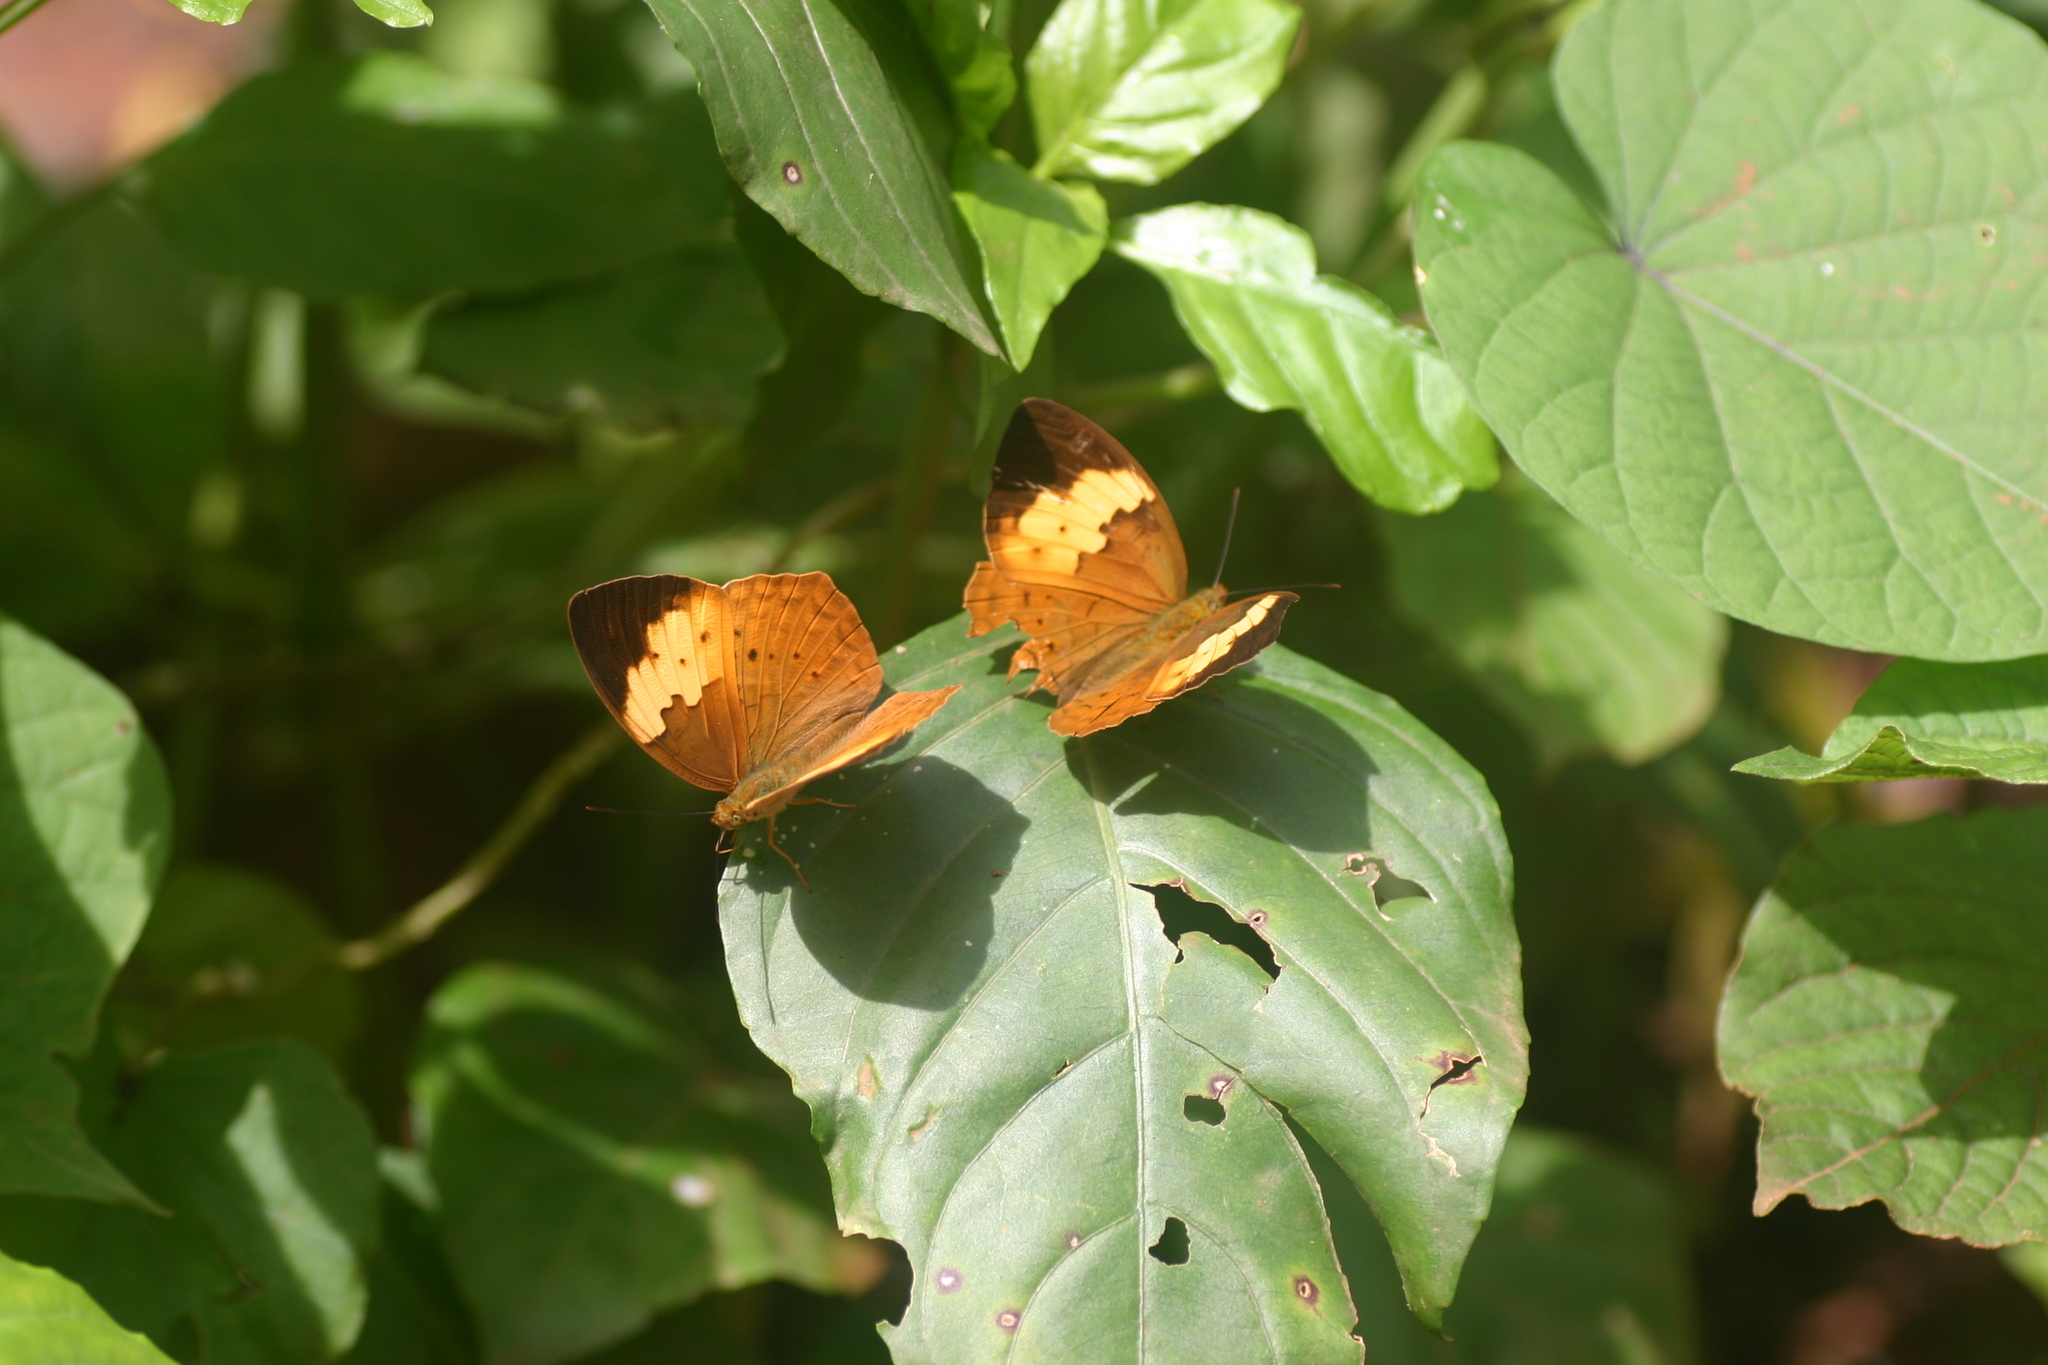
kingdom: Animalia
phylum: Arthropoda
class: Insecta
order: Lepidoptera
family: Nymphalidae
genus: Cupha
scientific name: Cupha erymanthis
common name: Rustic
